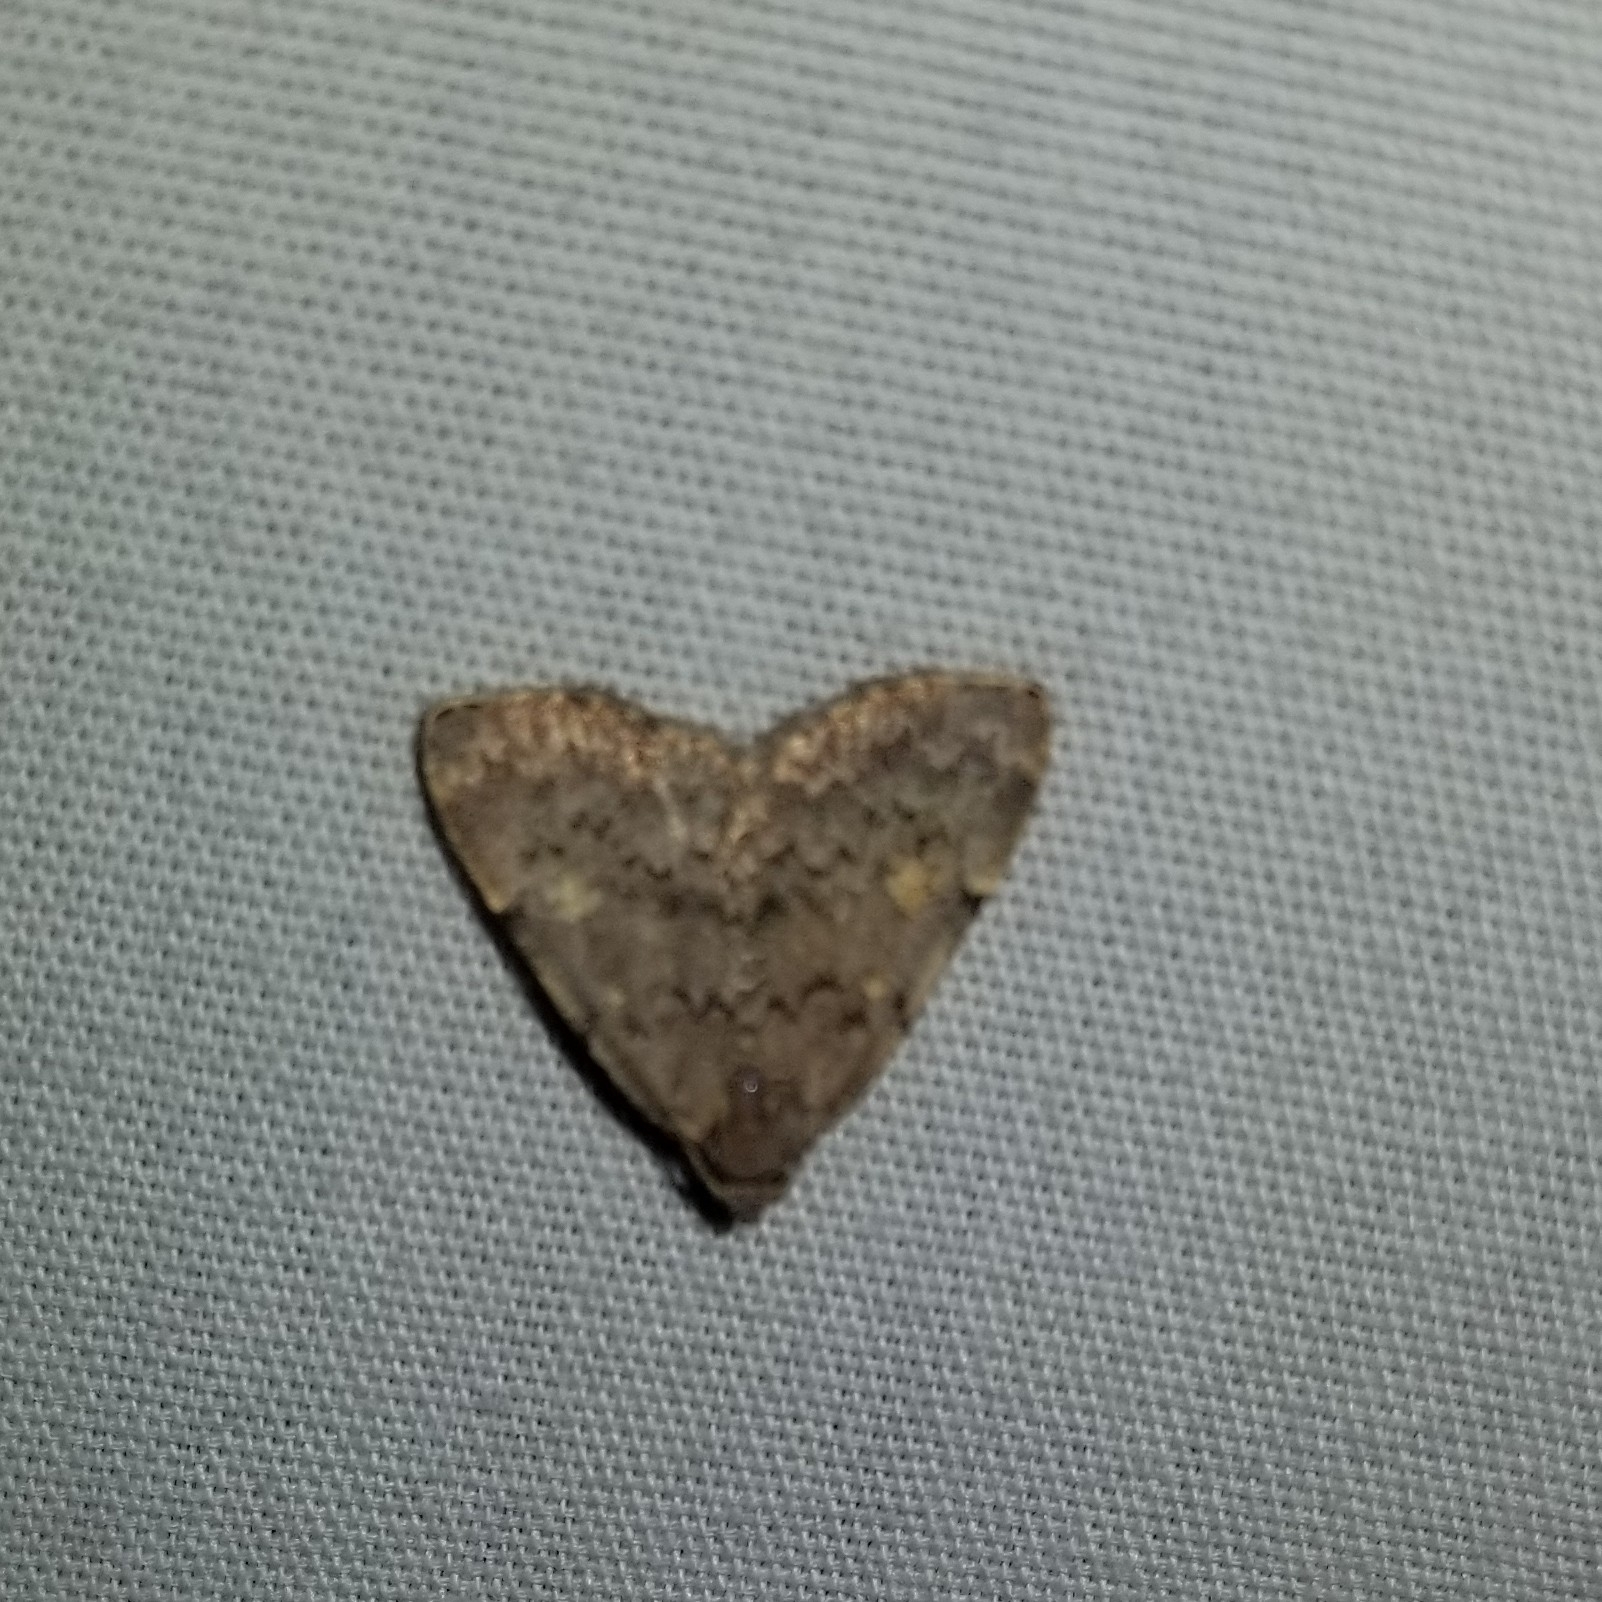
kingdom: Animalia
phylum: Arthropoda
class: Insecta
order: Lepidoptera
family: Erebidae
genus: Idia
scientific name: Idia aemula
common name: Common idia moth
